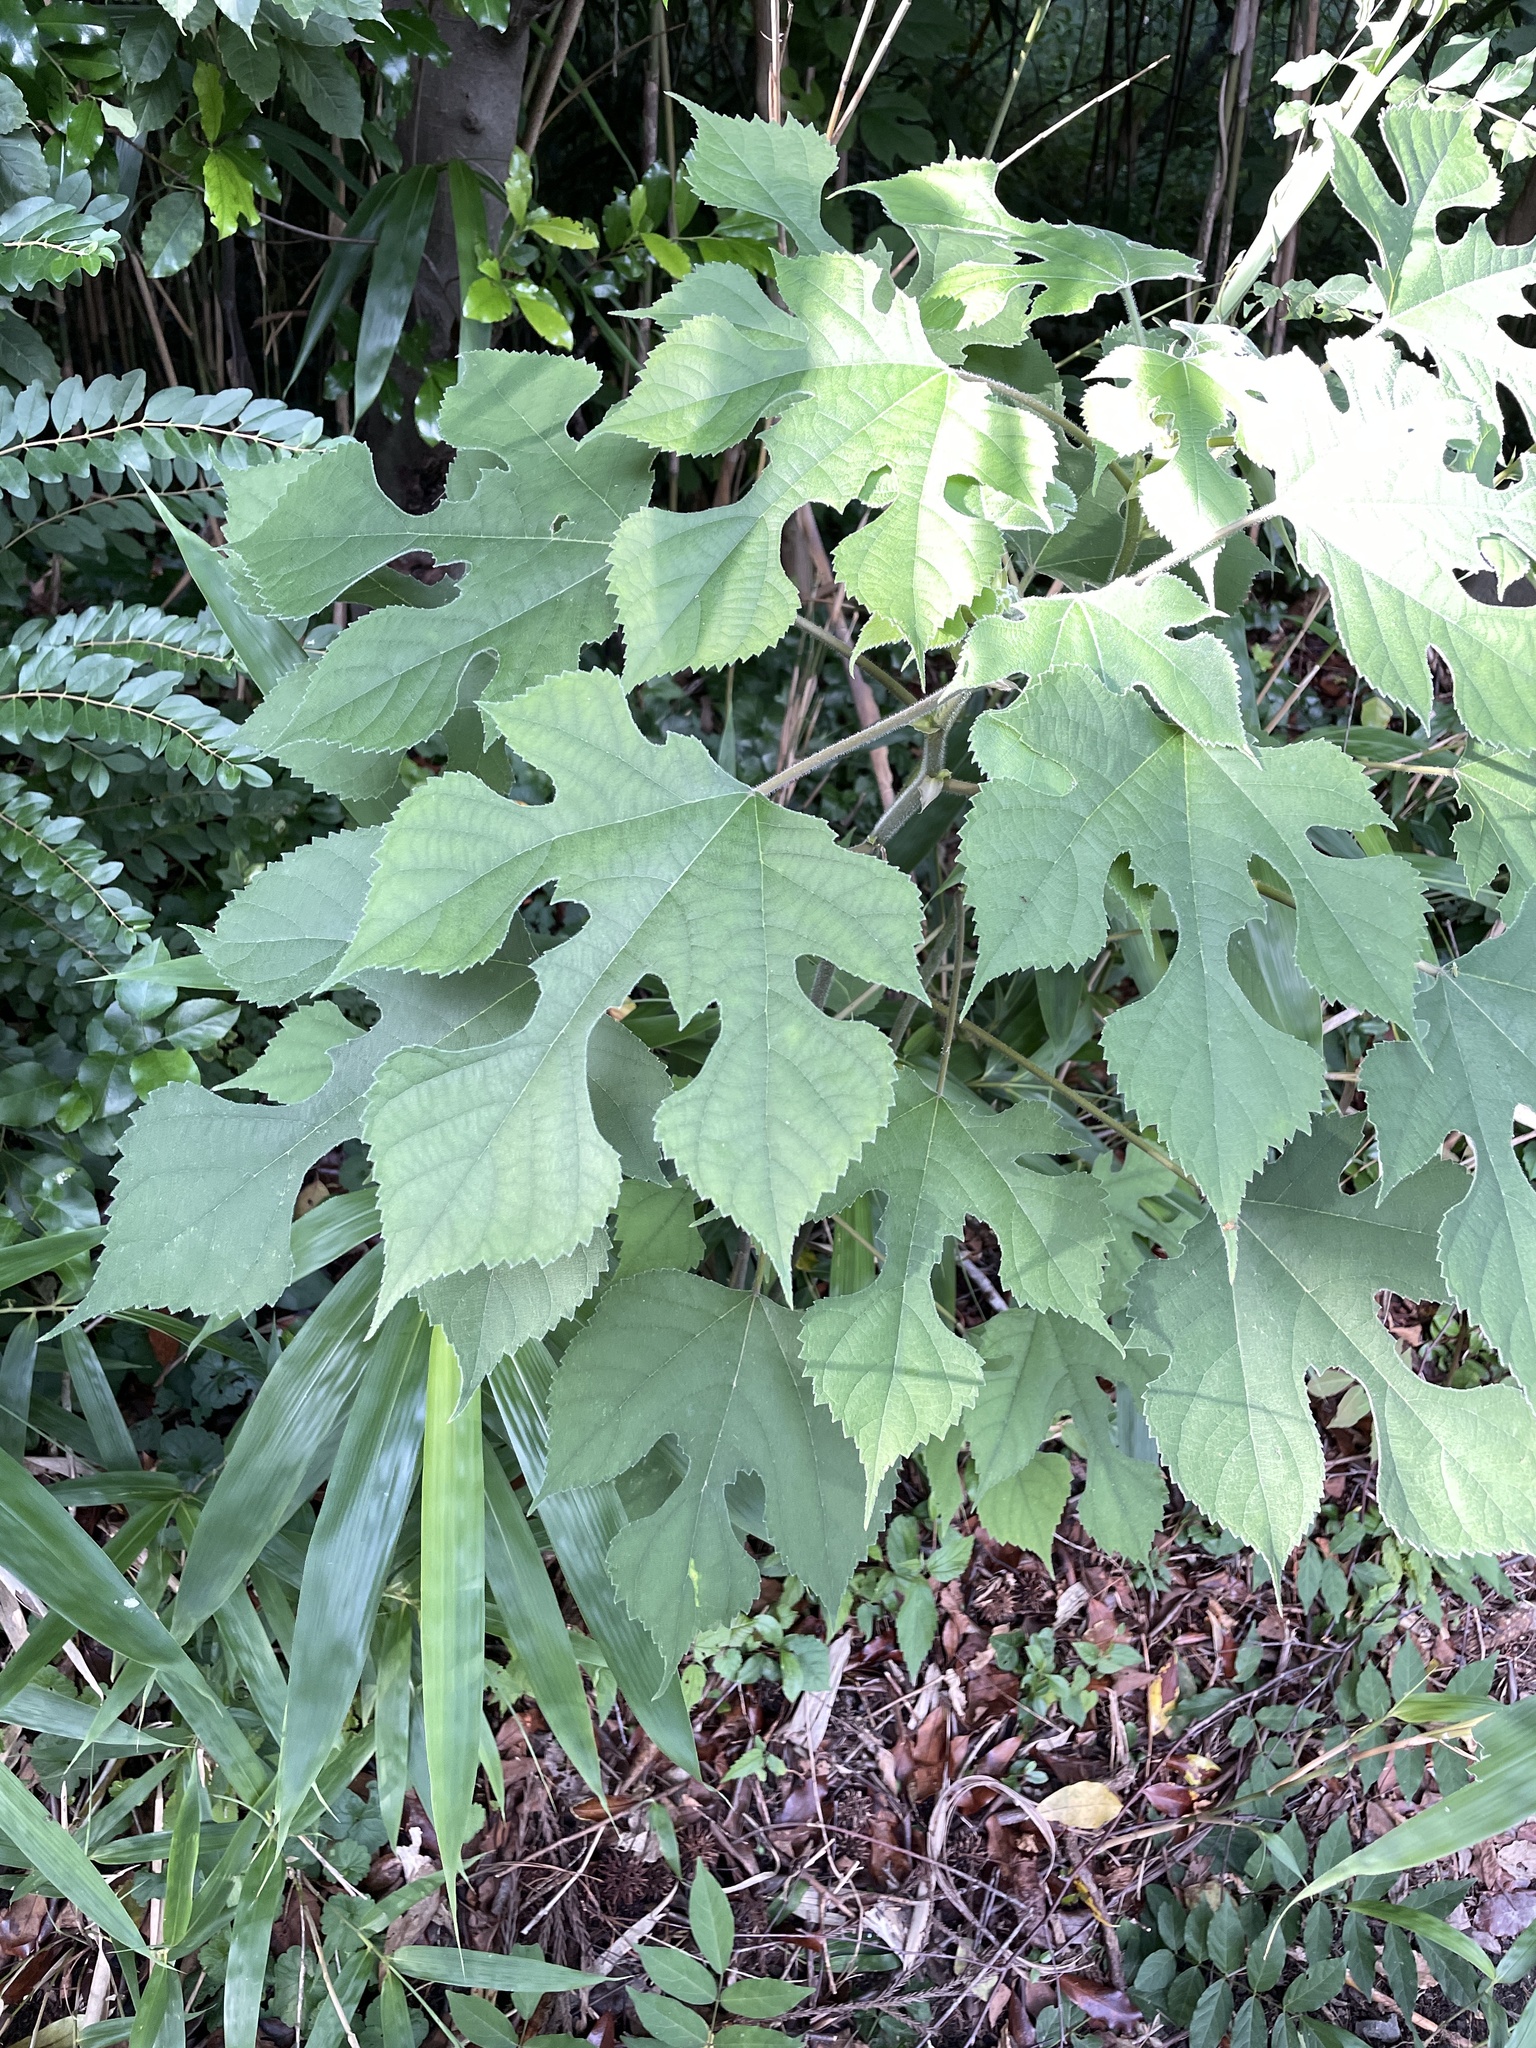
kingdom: Plantae
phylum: Tracheophyta
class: Magnoliopsida
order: Rosales
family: Moraceae
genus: Broussonetia
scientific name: Broussonetia papyrifera
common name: Paper mulberry
